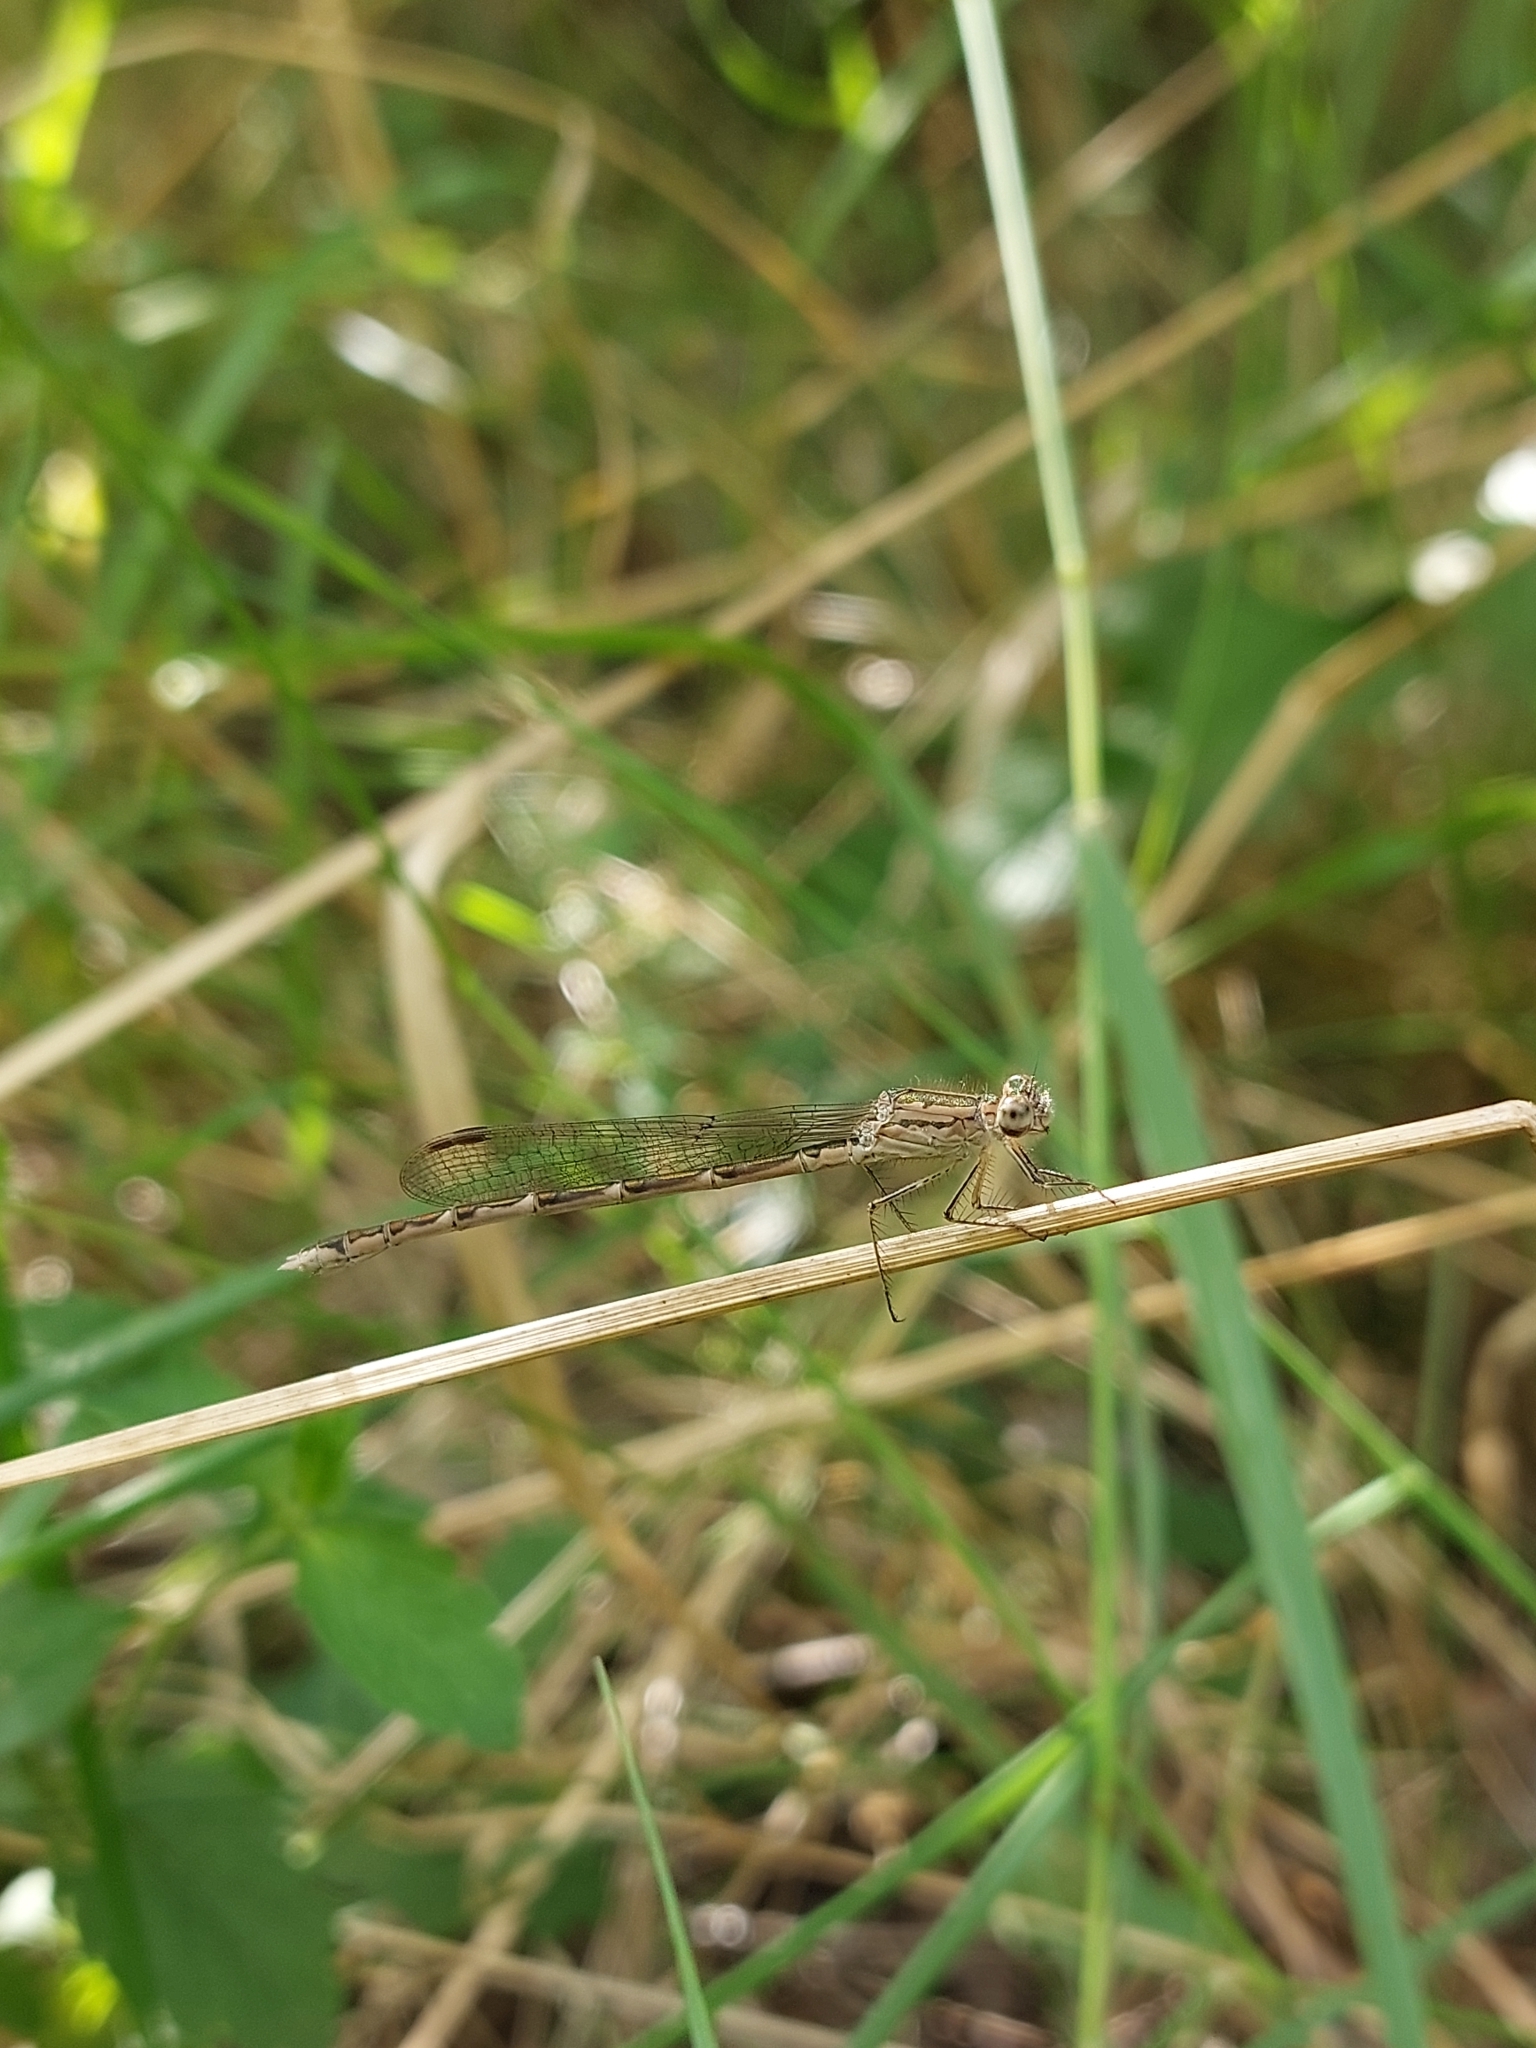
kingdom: Animalia
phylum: Arthropoda
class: Insecta
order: Odonata
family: Lestidae
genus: Sympecma
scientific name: Sympecma paedisca
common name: Siberian winter damsel
